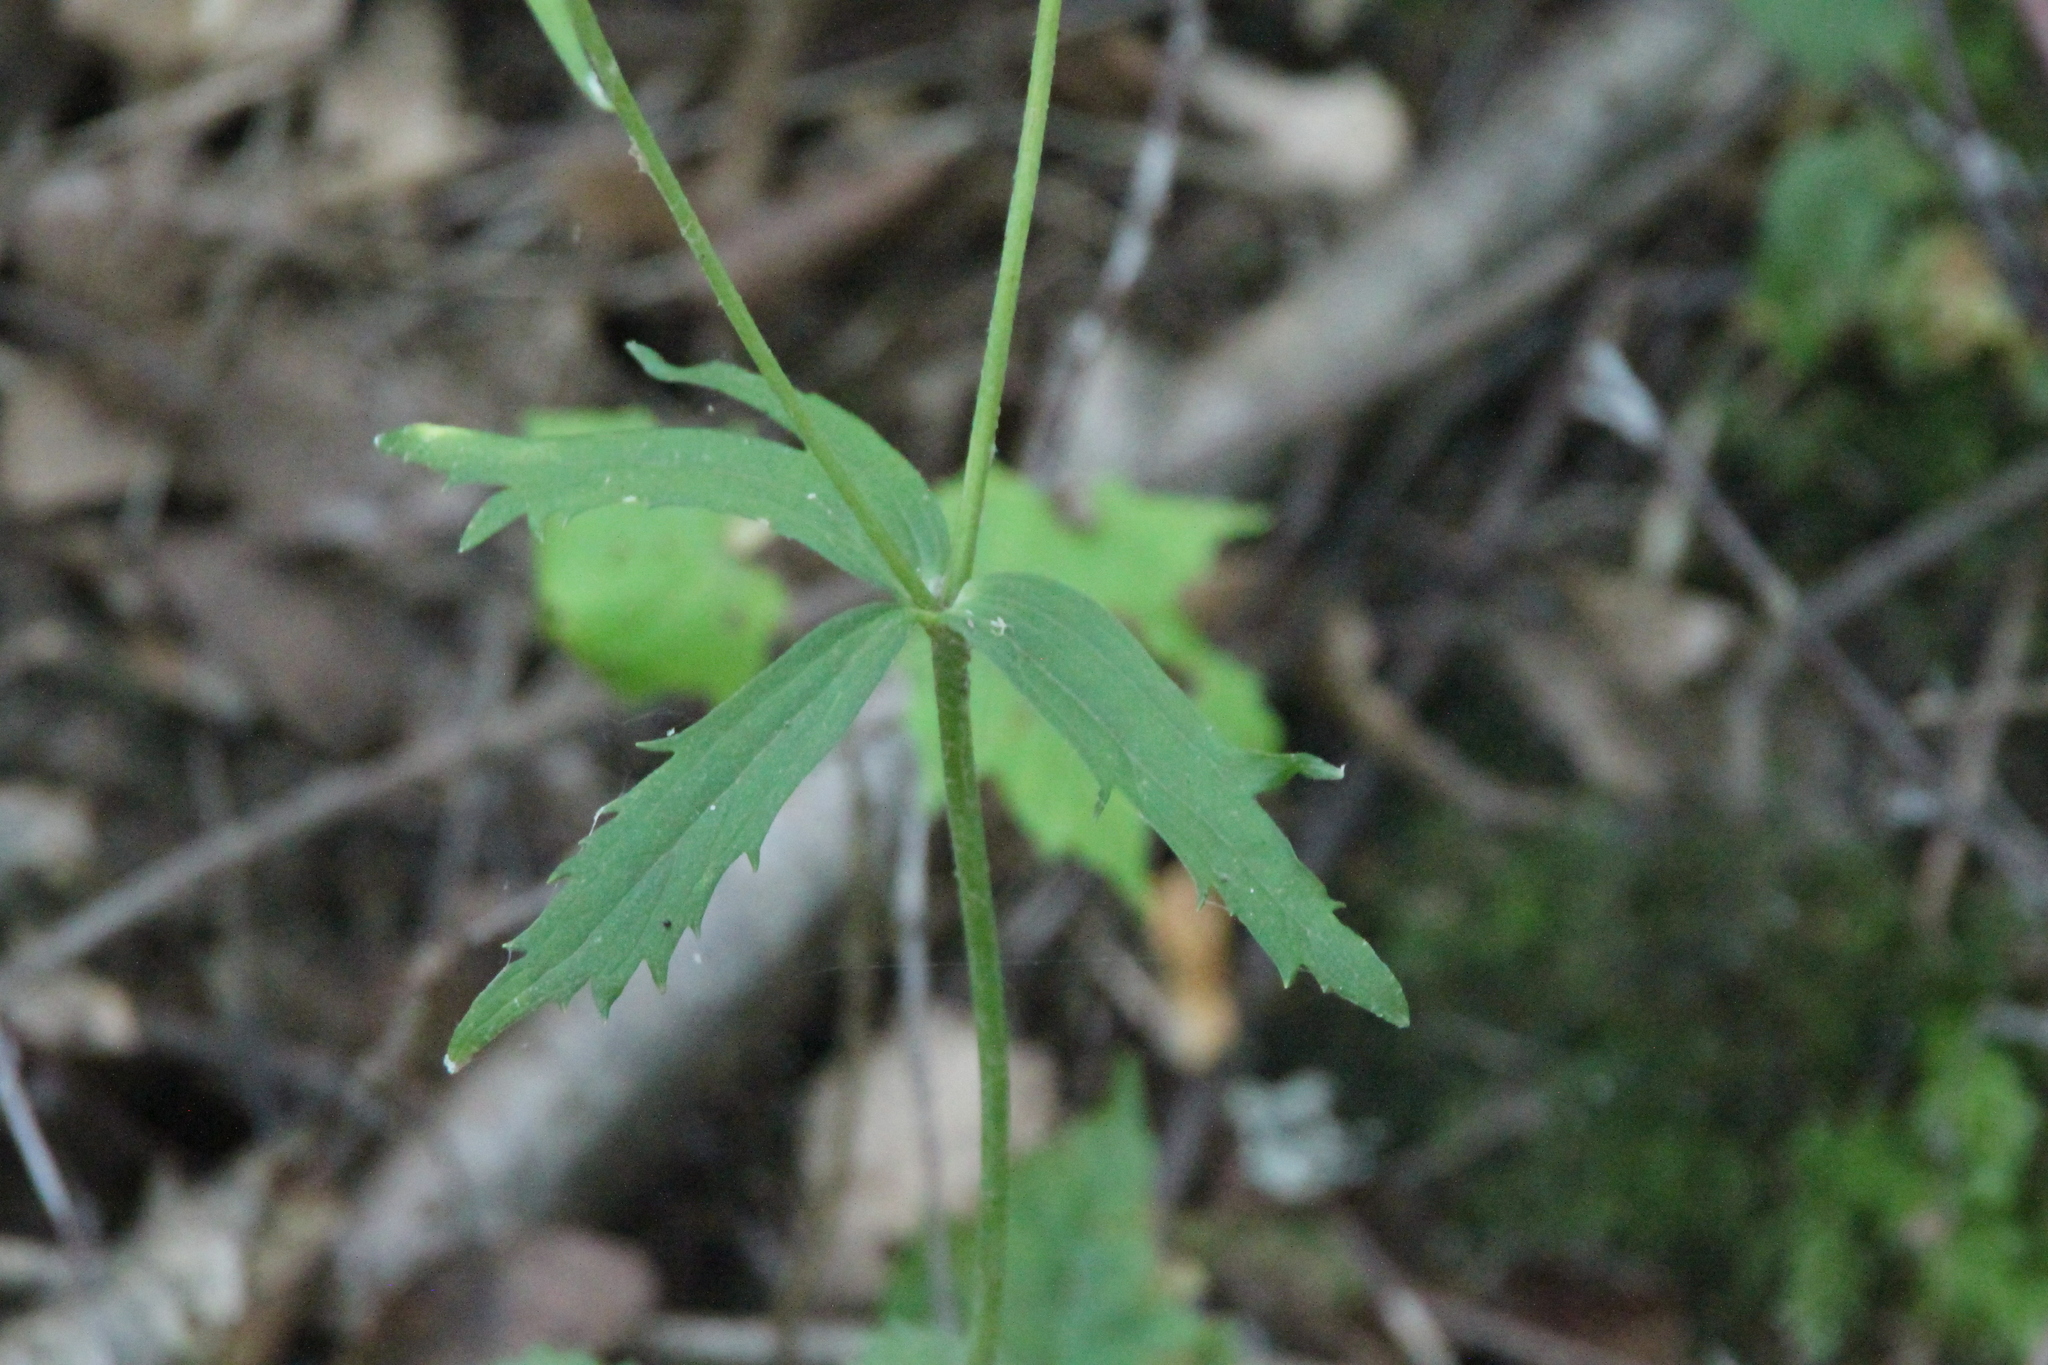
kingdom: Plantae
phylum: Tracheophyta
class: Magnoliopsida
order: Ranunculales
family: Ranunculaceae
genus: Ranunculus
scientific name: Ranunculus cassubicus
